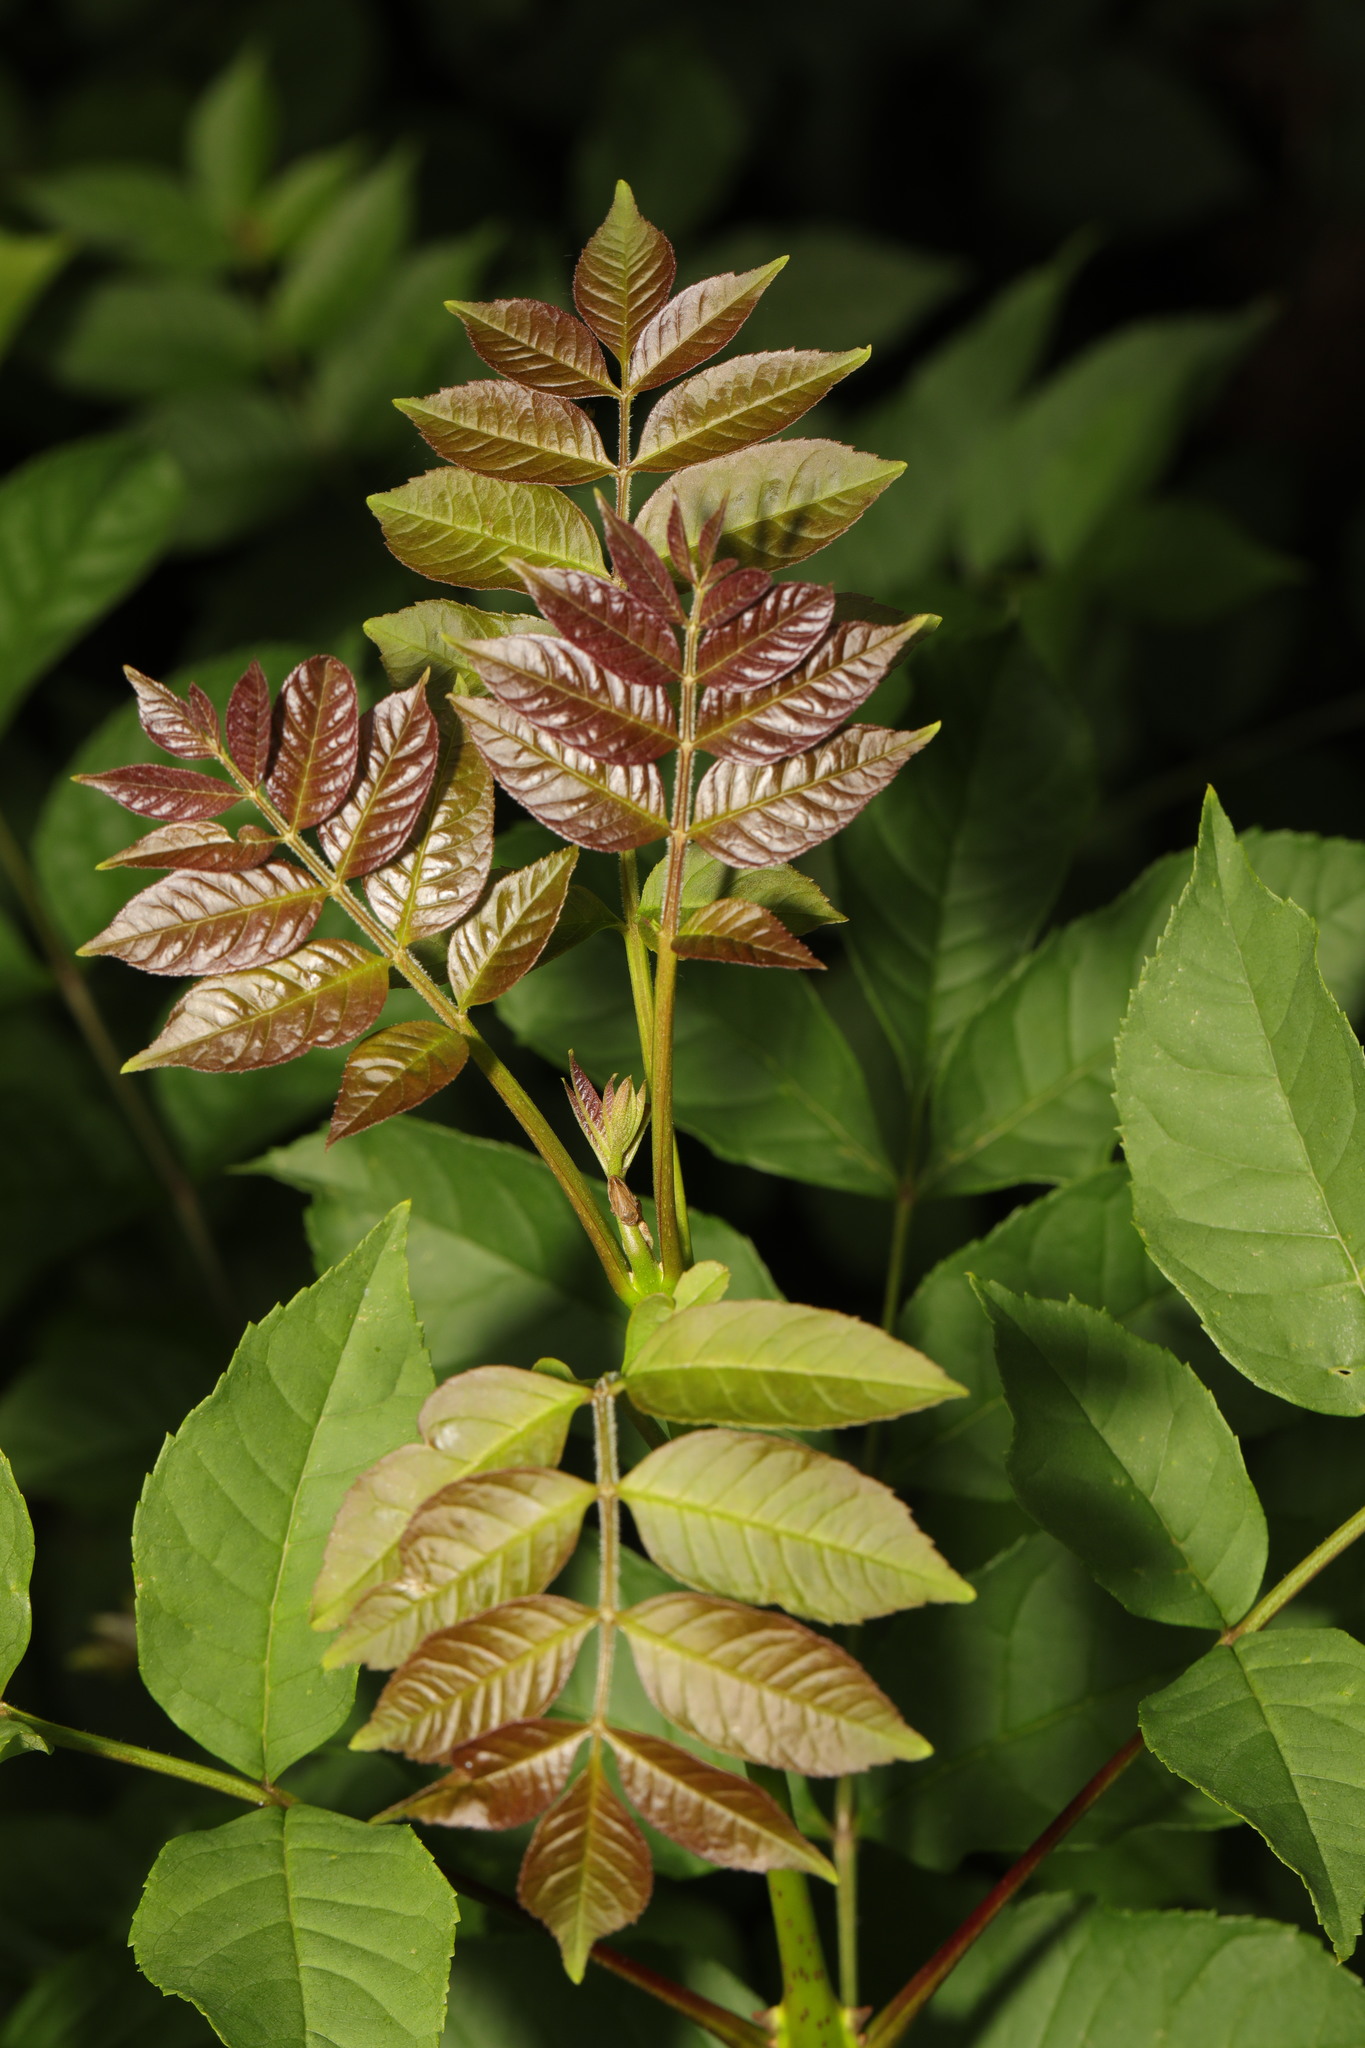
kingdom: Plantae
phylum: Tracheophyta
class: Magnoliopsida
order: Lamiales
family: Oleaceae
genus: Fraxinus
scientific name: Fraxinus excelsior
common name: European ash
